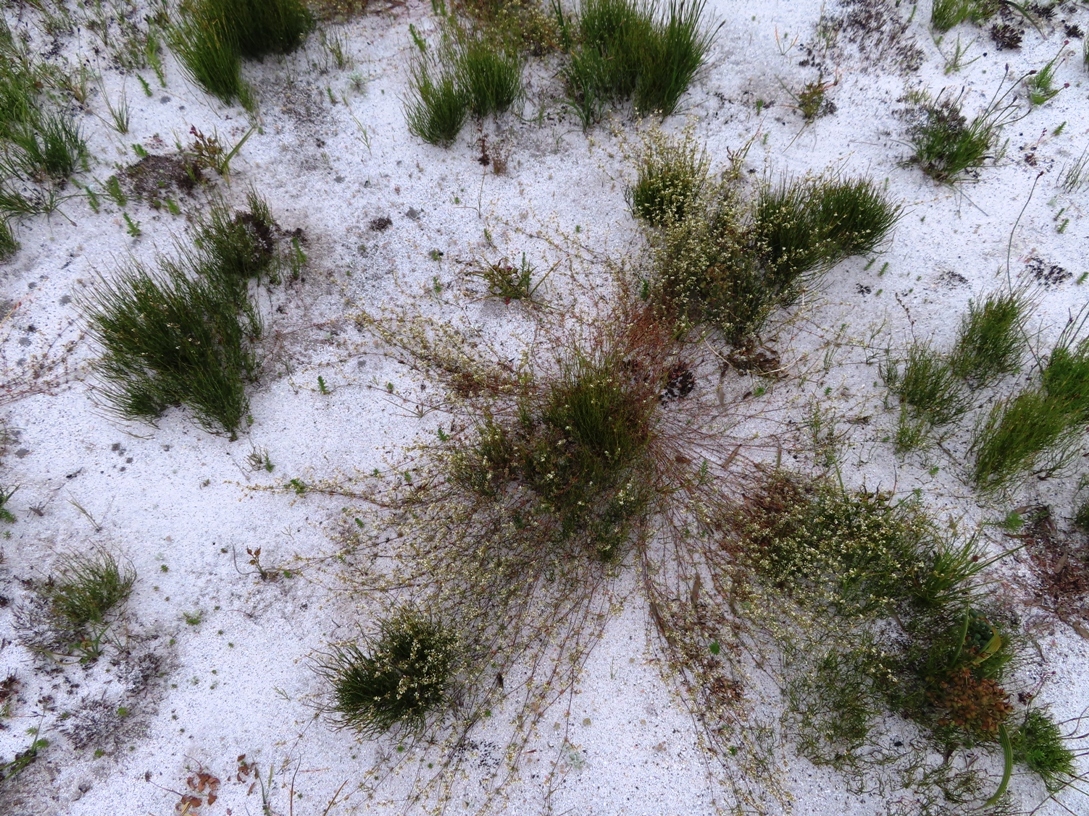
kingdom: Plantae
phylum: Tracheophyta
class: Magnoliopsida
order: Caryophyllales
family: Molluginaceae
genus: Adenogramma
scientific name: Adenogramma lichtensteiniana
